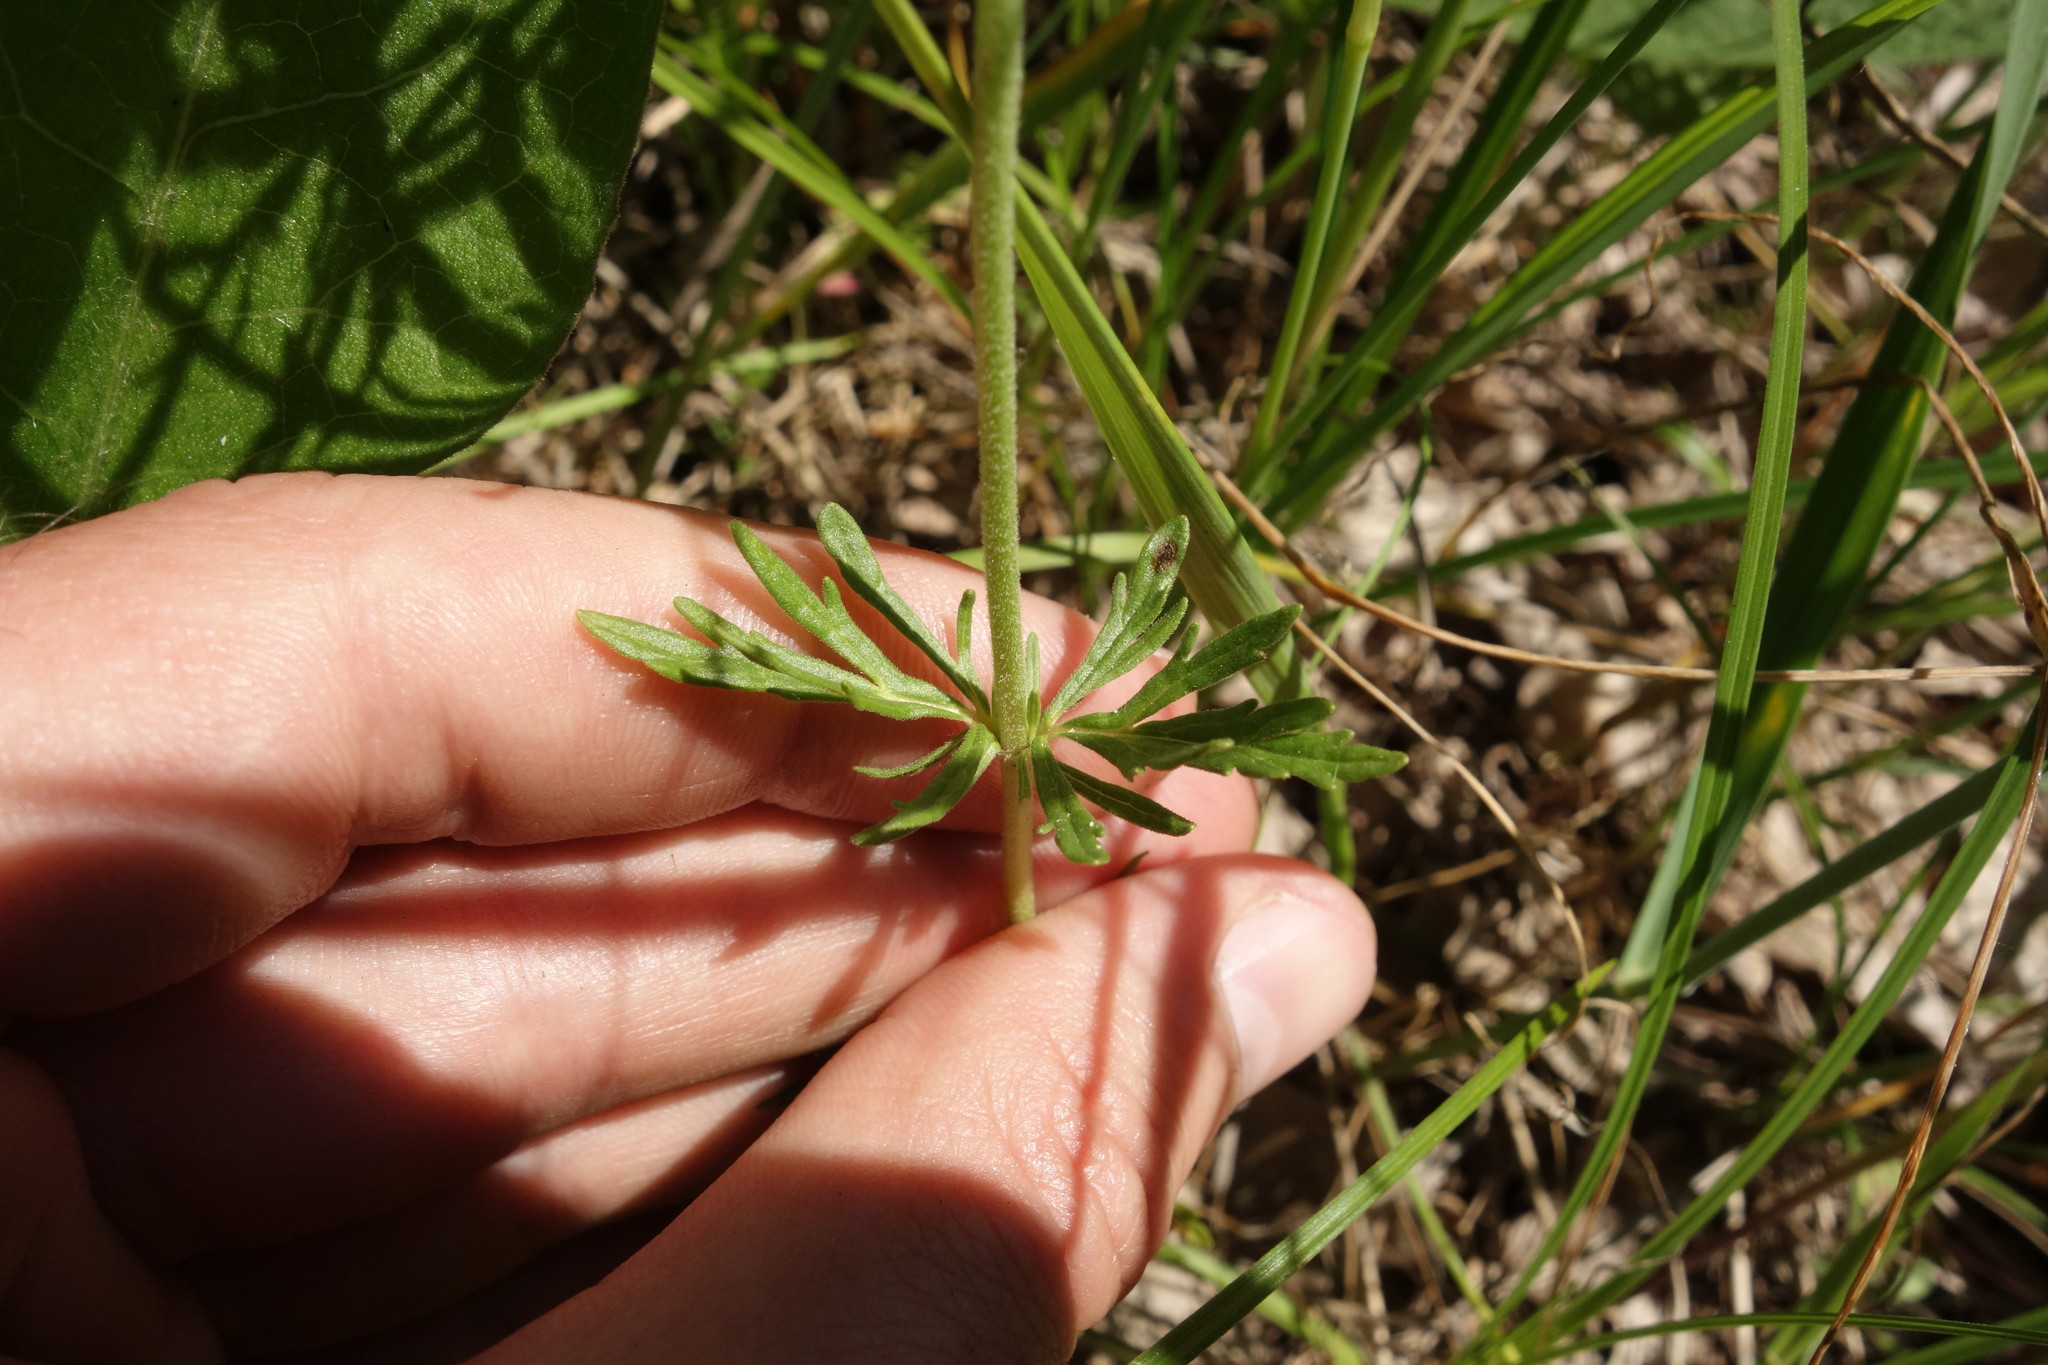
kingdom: Plantae
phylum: Tracheophyta
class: Magnoliopsida
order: Lamiales
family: Plantaginaceae
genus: Veronica
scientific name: Veronica austriaca
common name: Large speedwell
